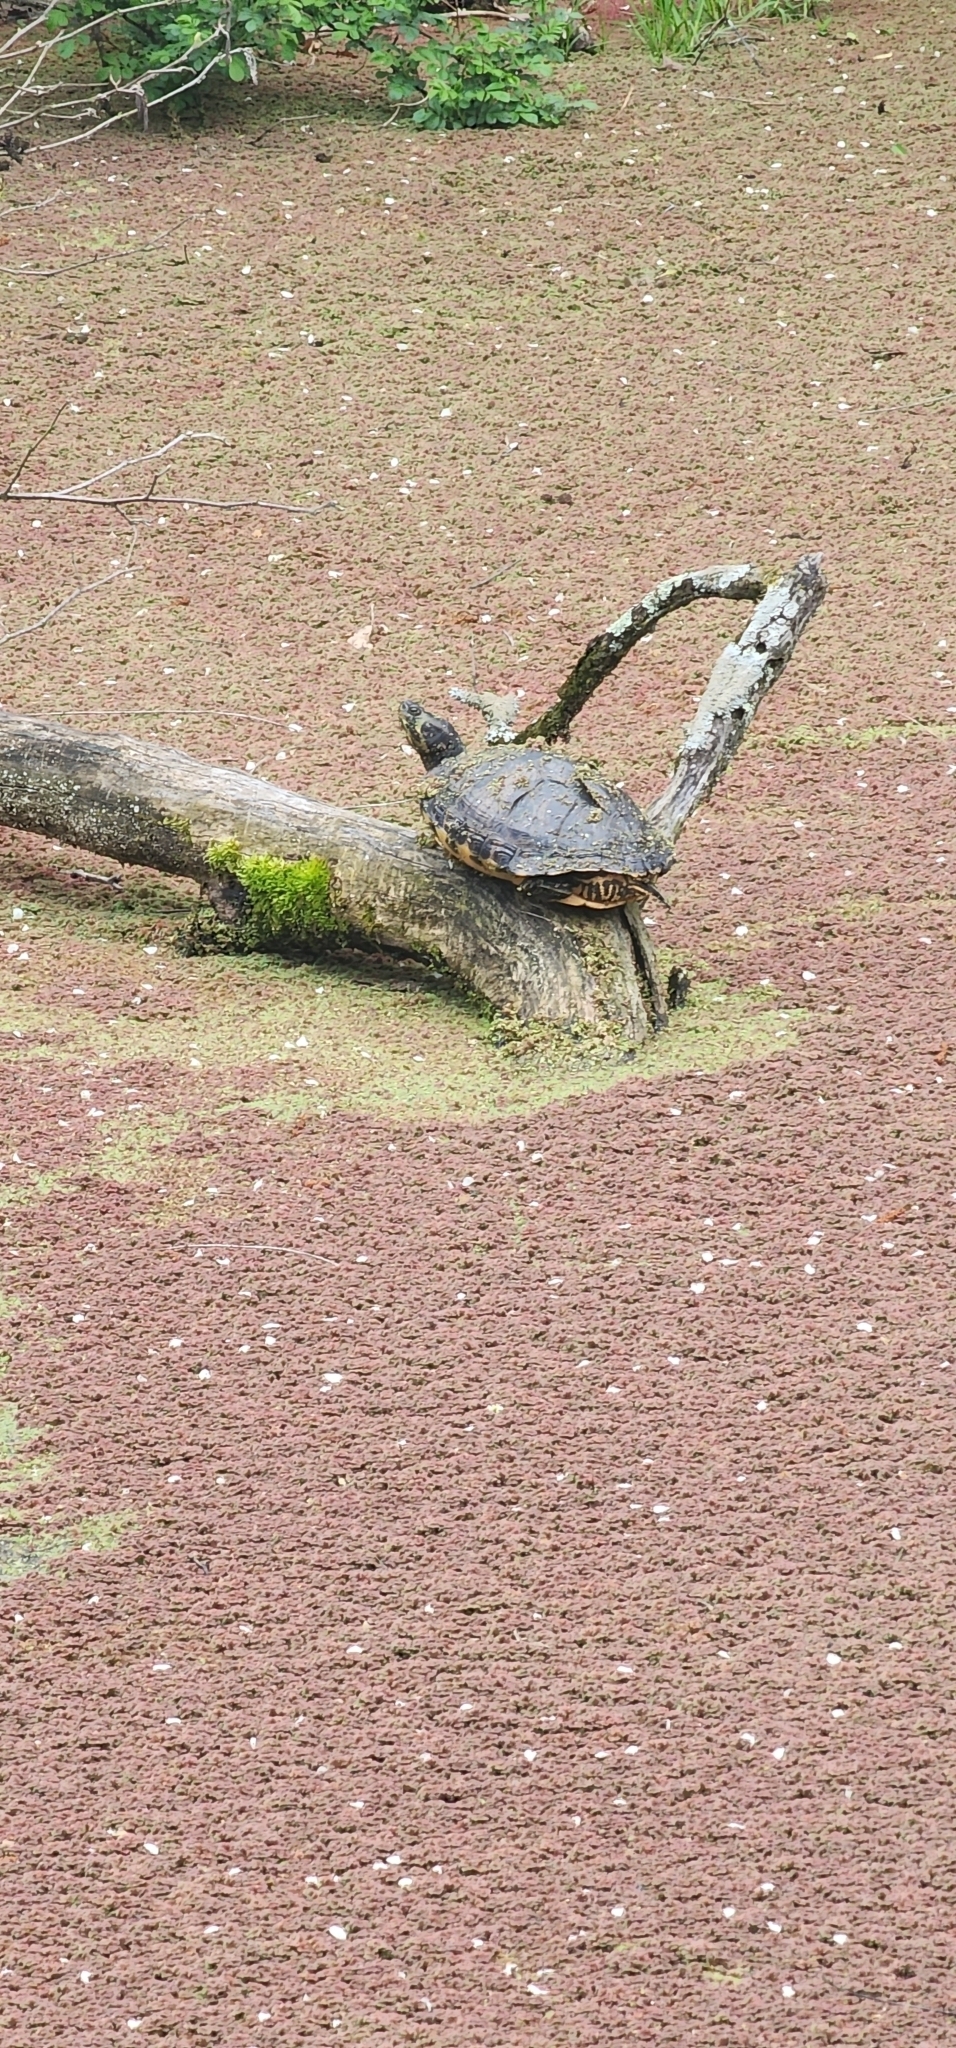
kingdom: Animalia
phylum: Chordata
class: Testudines
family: Emydidae
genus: Trachemys
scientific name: Trachemys scripta
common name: Slider
